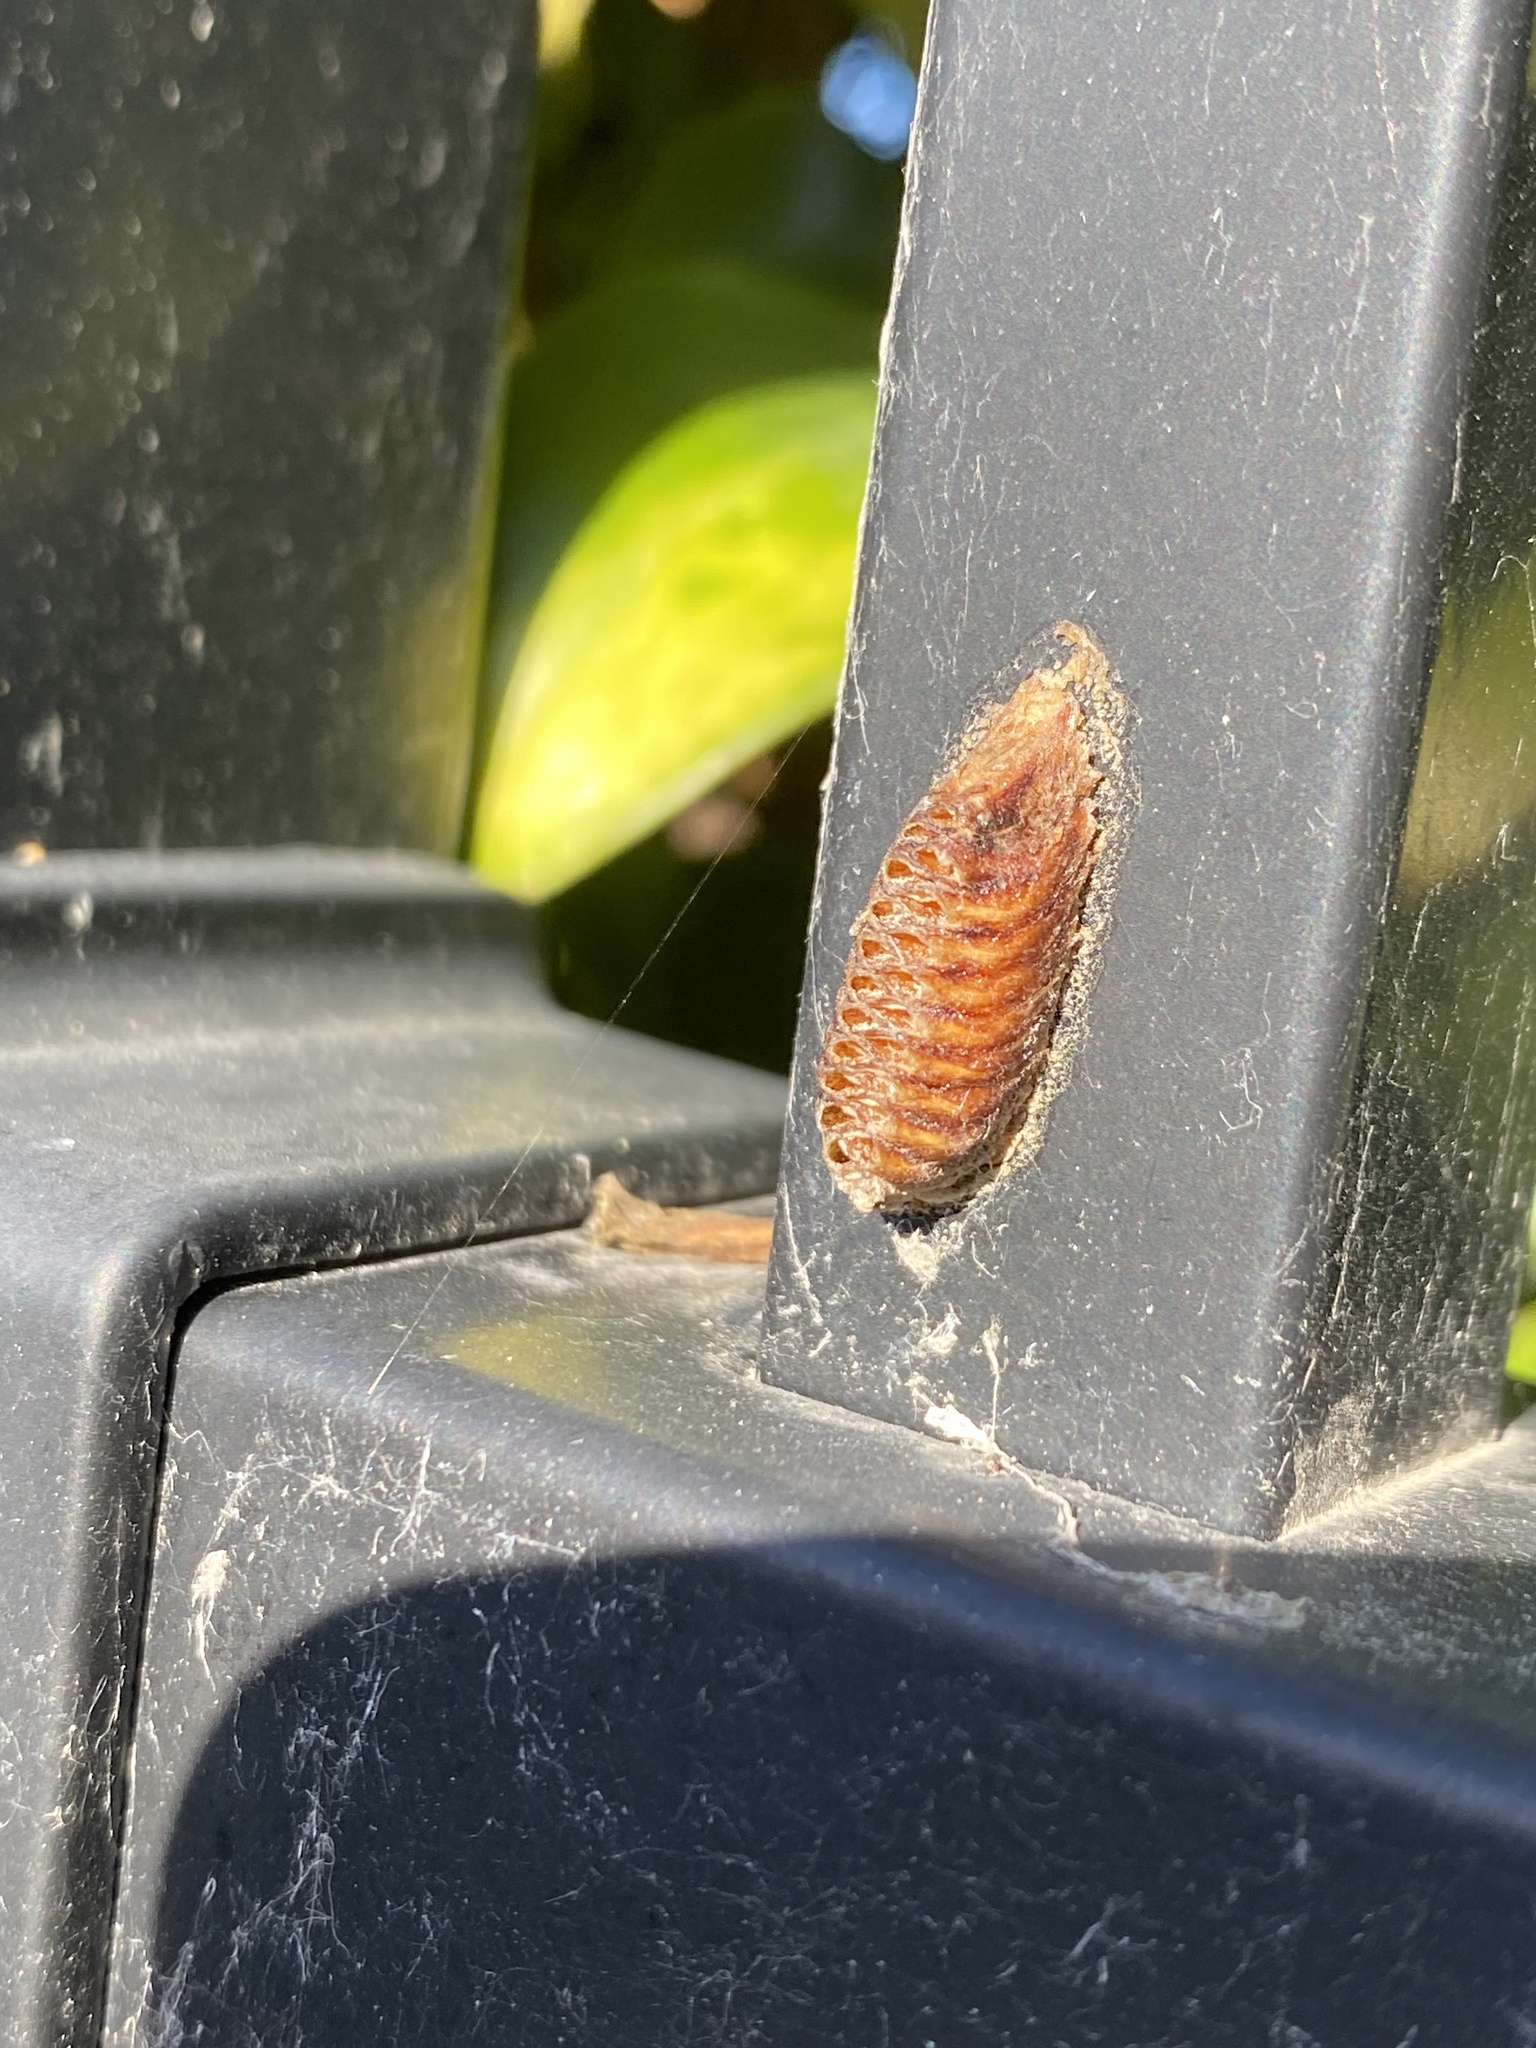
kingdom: Animalia
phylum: Arthropoda
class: Insecta
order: Mantodea
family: Mantidae
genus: Orthodera
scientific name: Orthodera novaezealandiae
